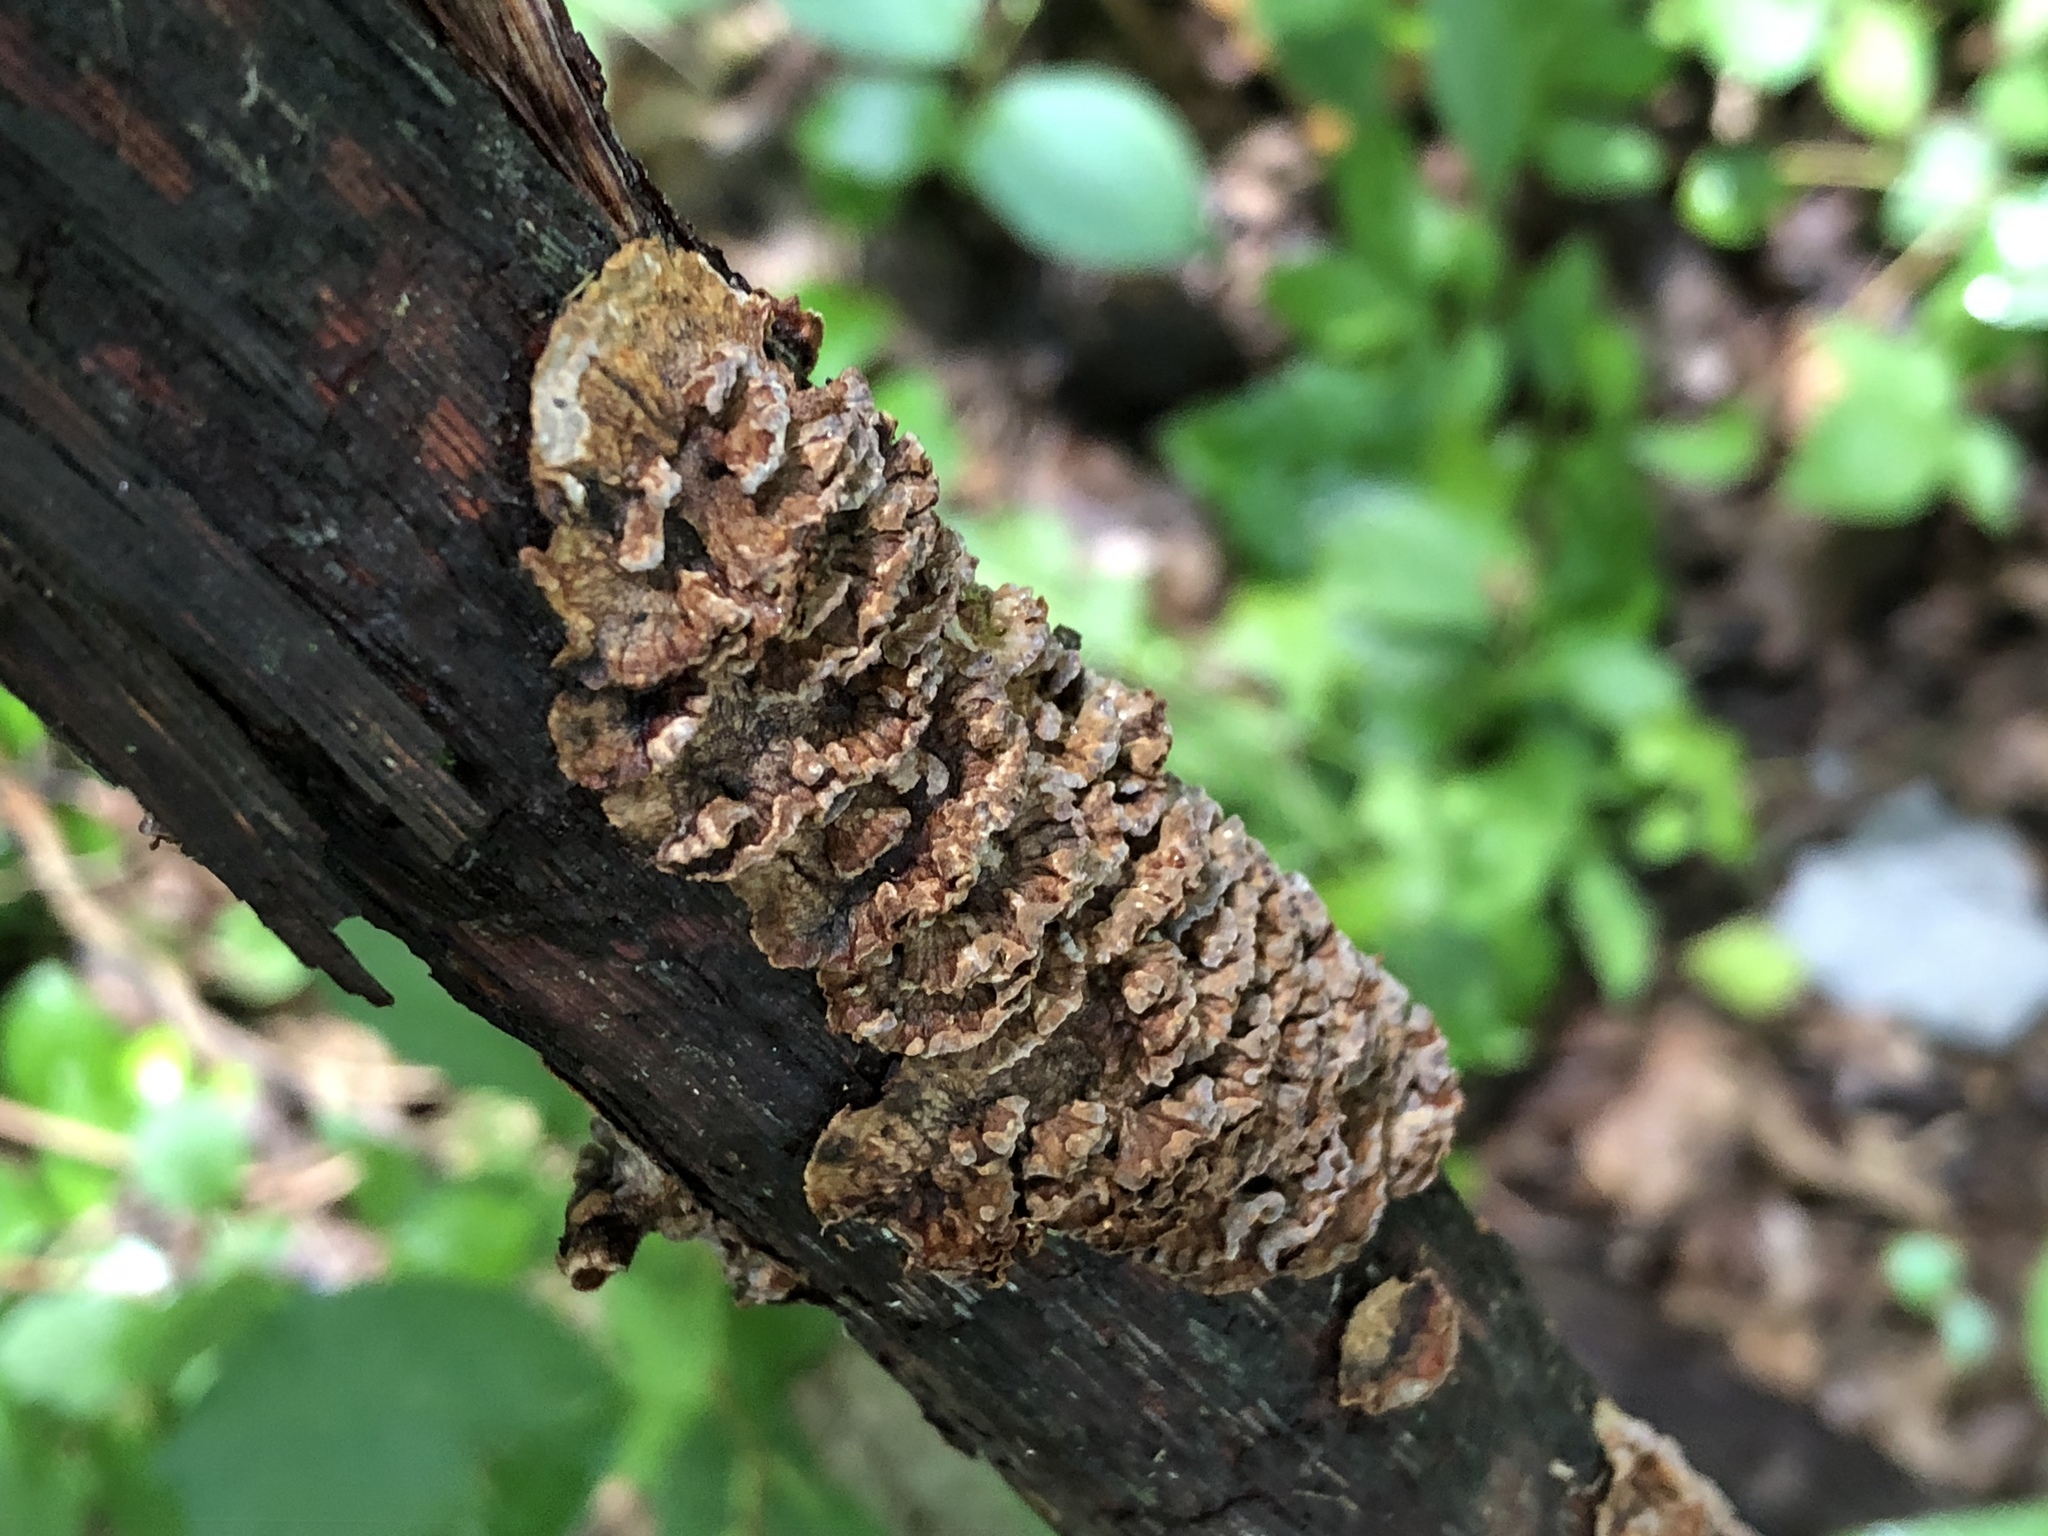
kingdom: Fungi
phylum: Basidiomycota
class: Agaricomycetes
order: Russulales
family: Stereaceae
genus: Stereum
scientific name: Stereum complicatum
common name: Crowded parchment
